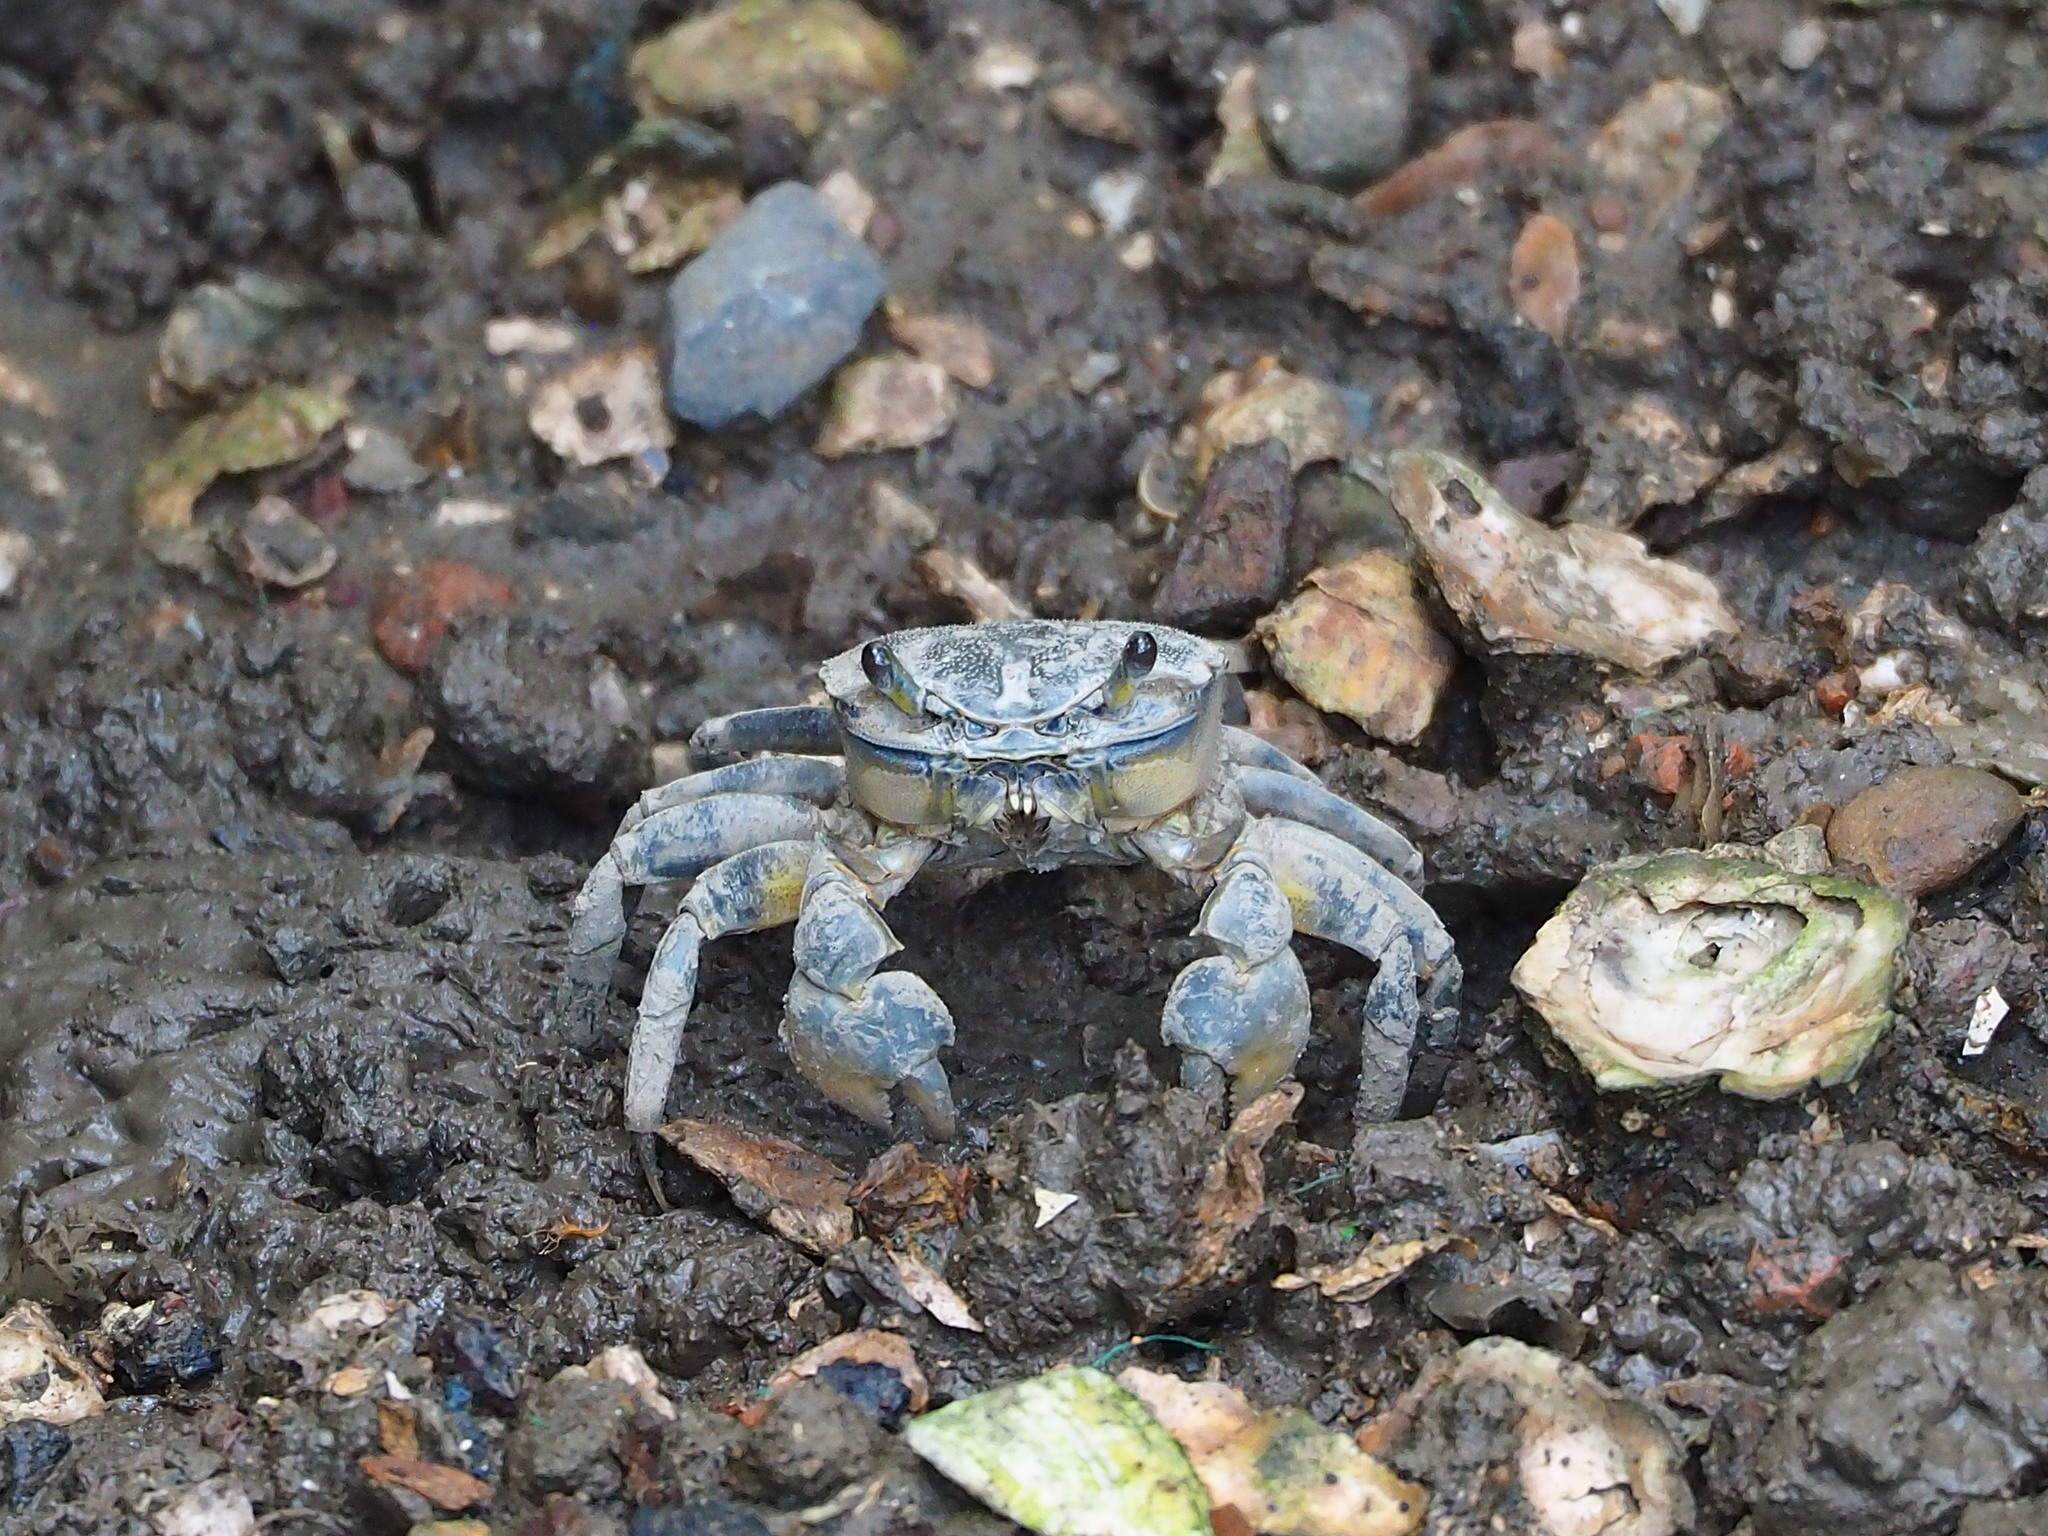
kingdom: Animalia
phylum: Arthropoda
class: Malacostraca
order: Decapoda
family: Varunidae
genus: Helice
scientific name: Helice formosensis
